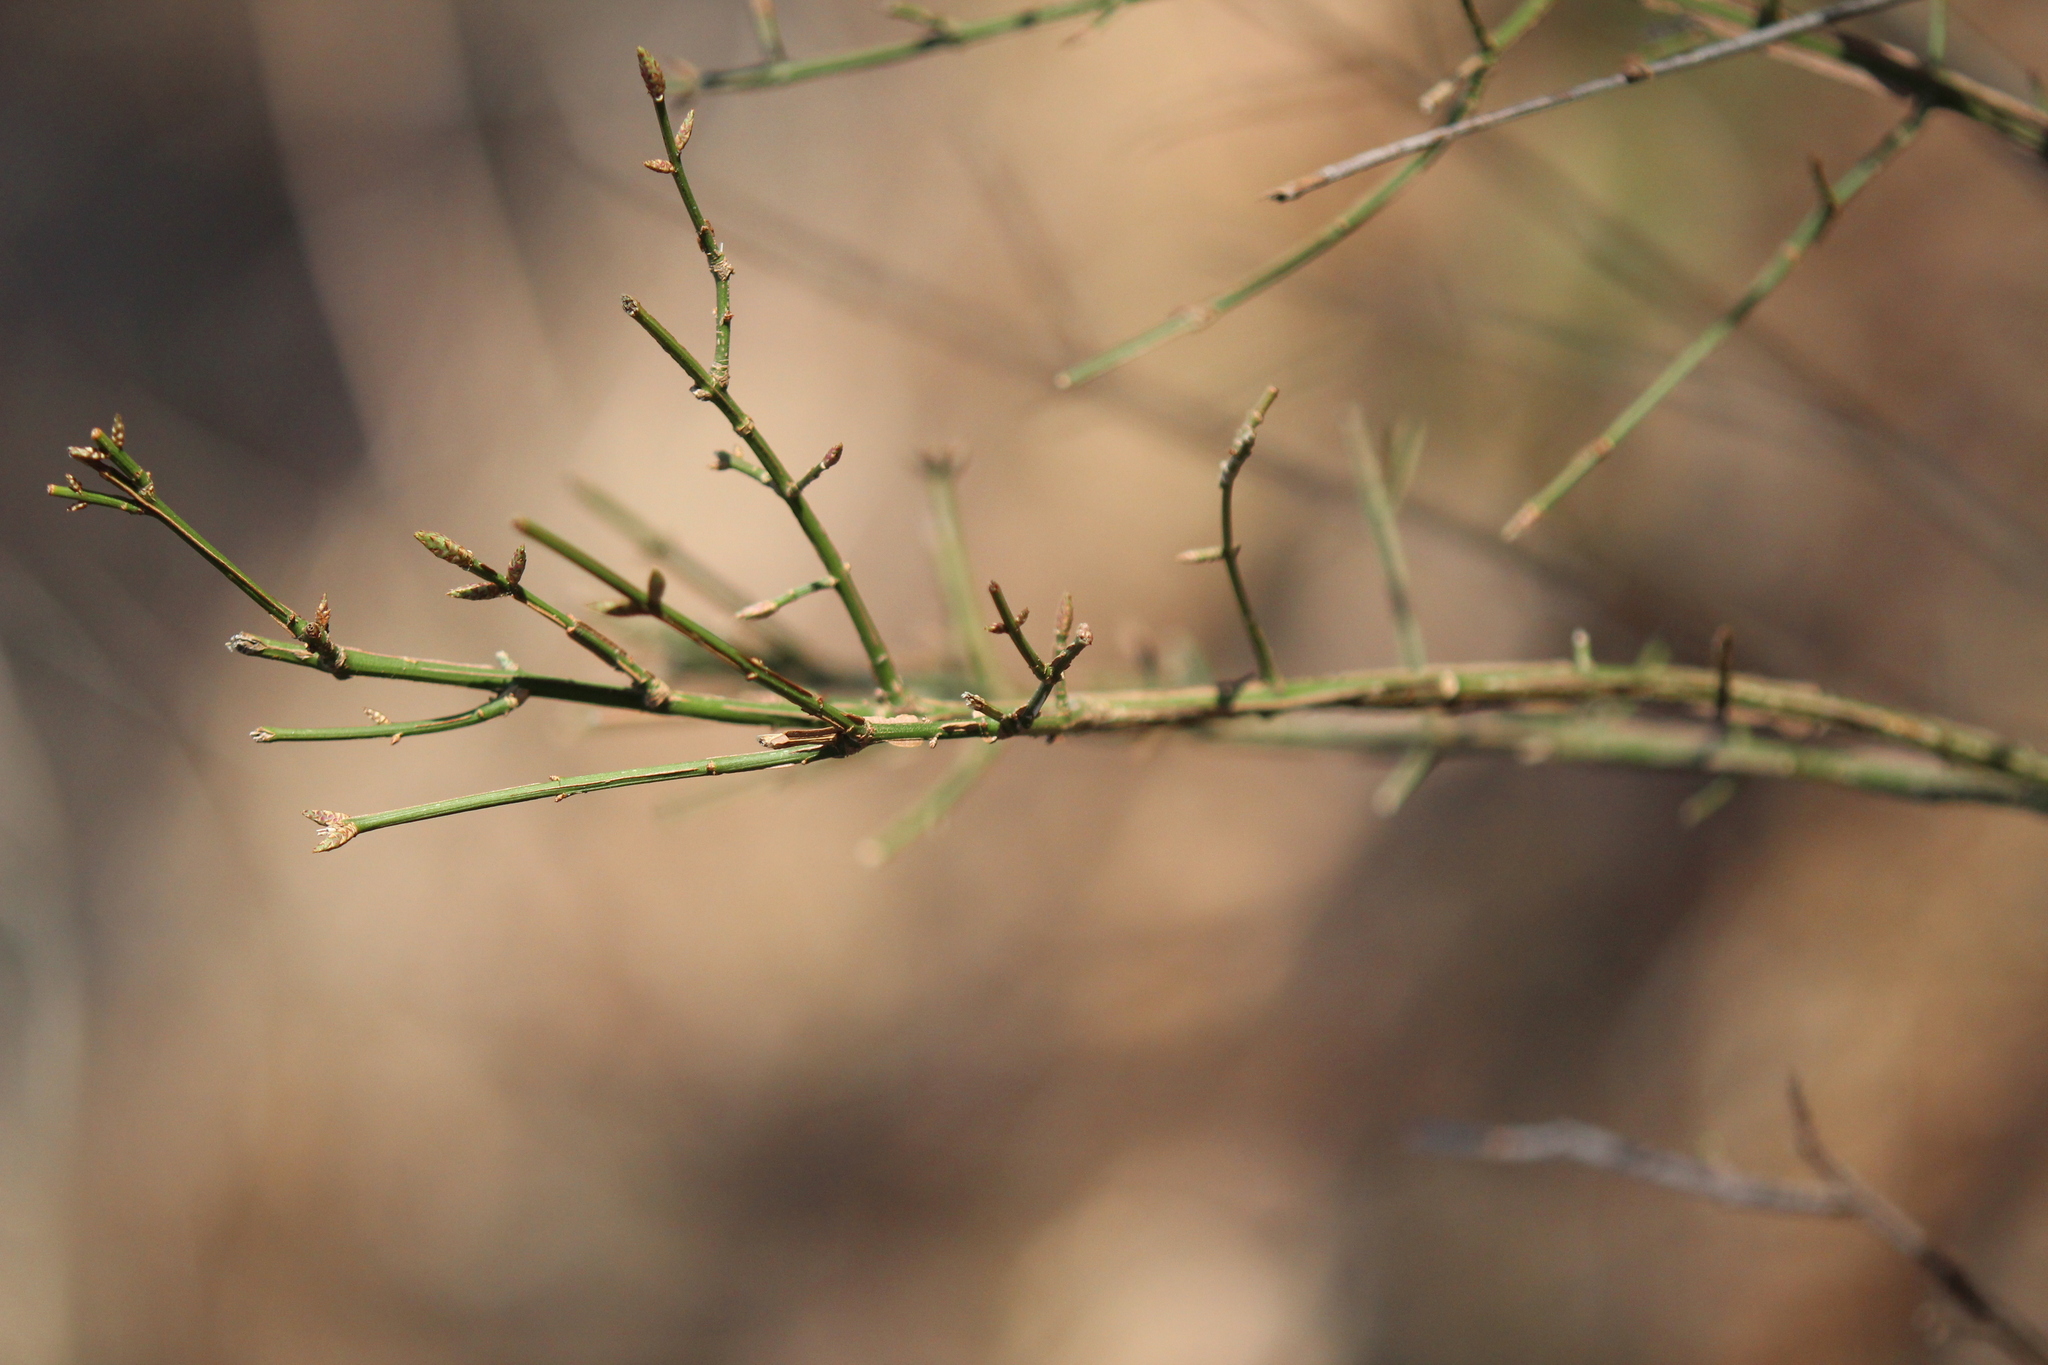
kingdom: Plantae
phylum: Tracheophyta
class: Magnoliopsida
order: Celastrales
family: Celastraceae
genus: Euonymus
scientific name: Euonymus alatus
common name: Winged euonymus
